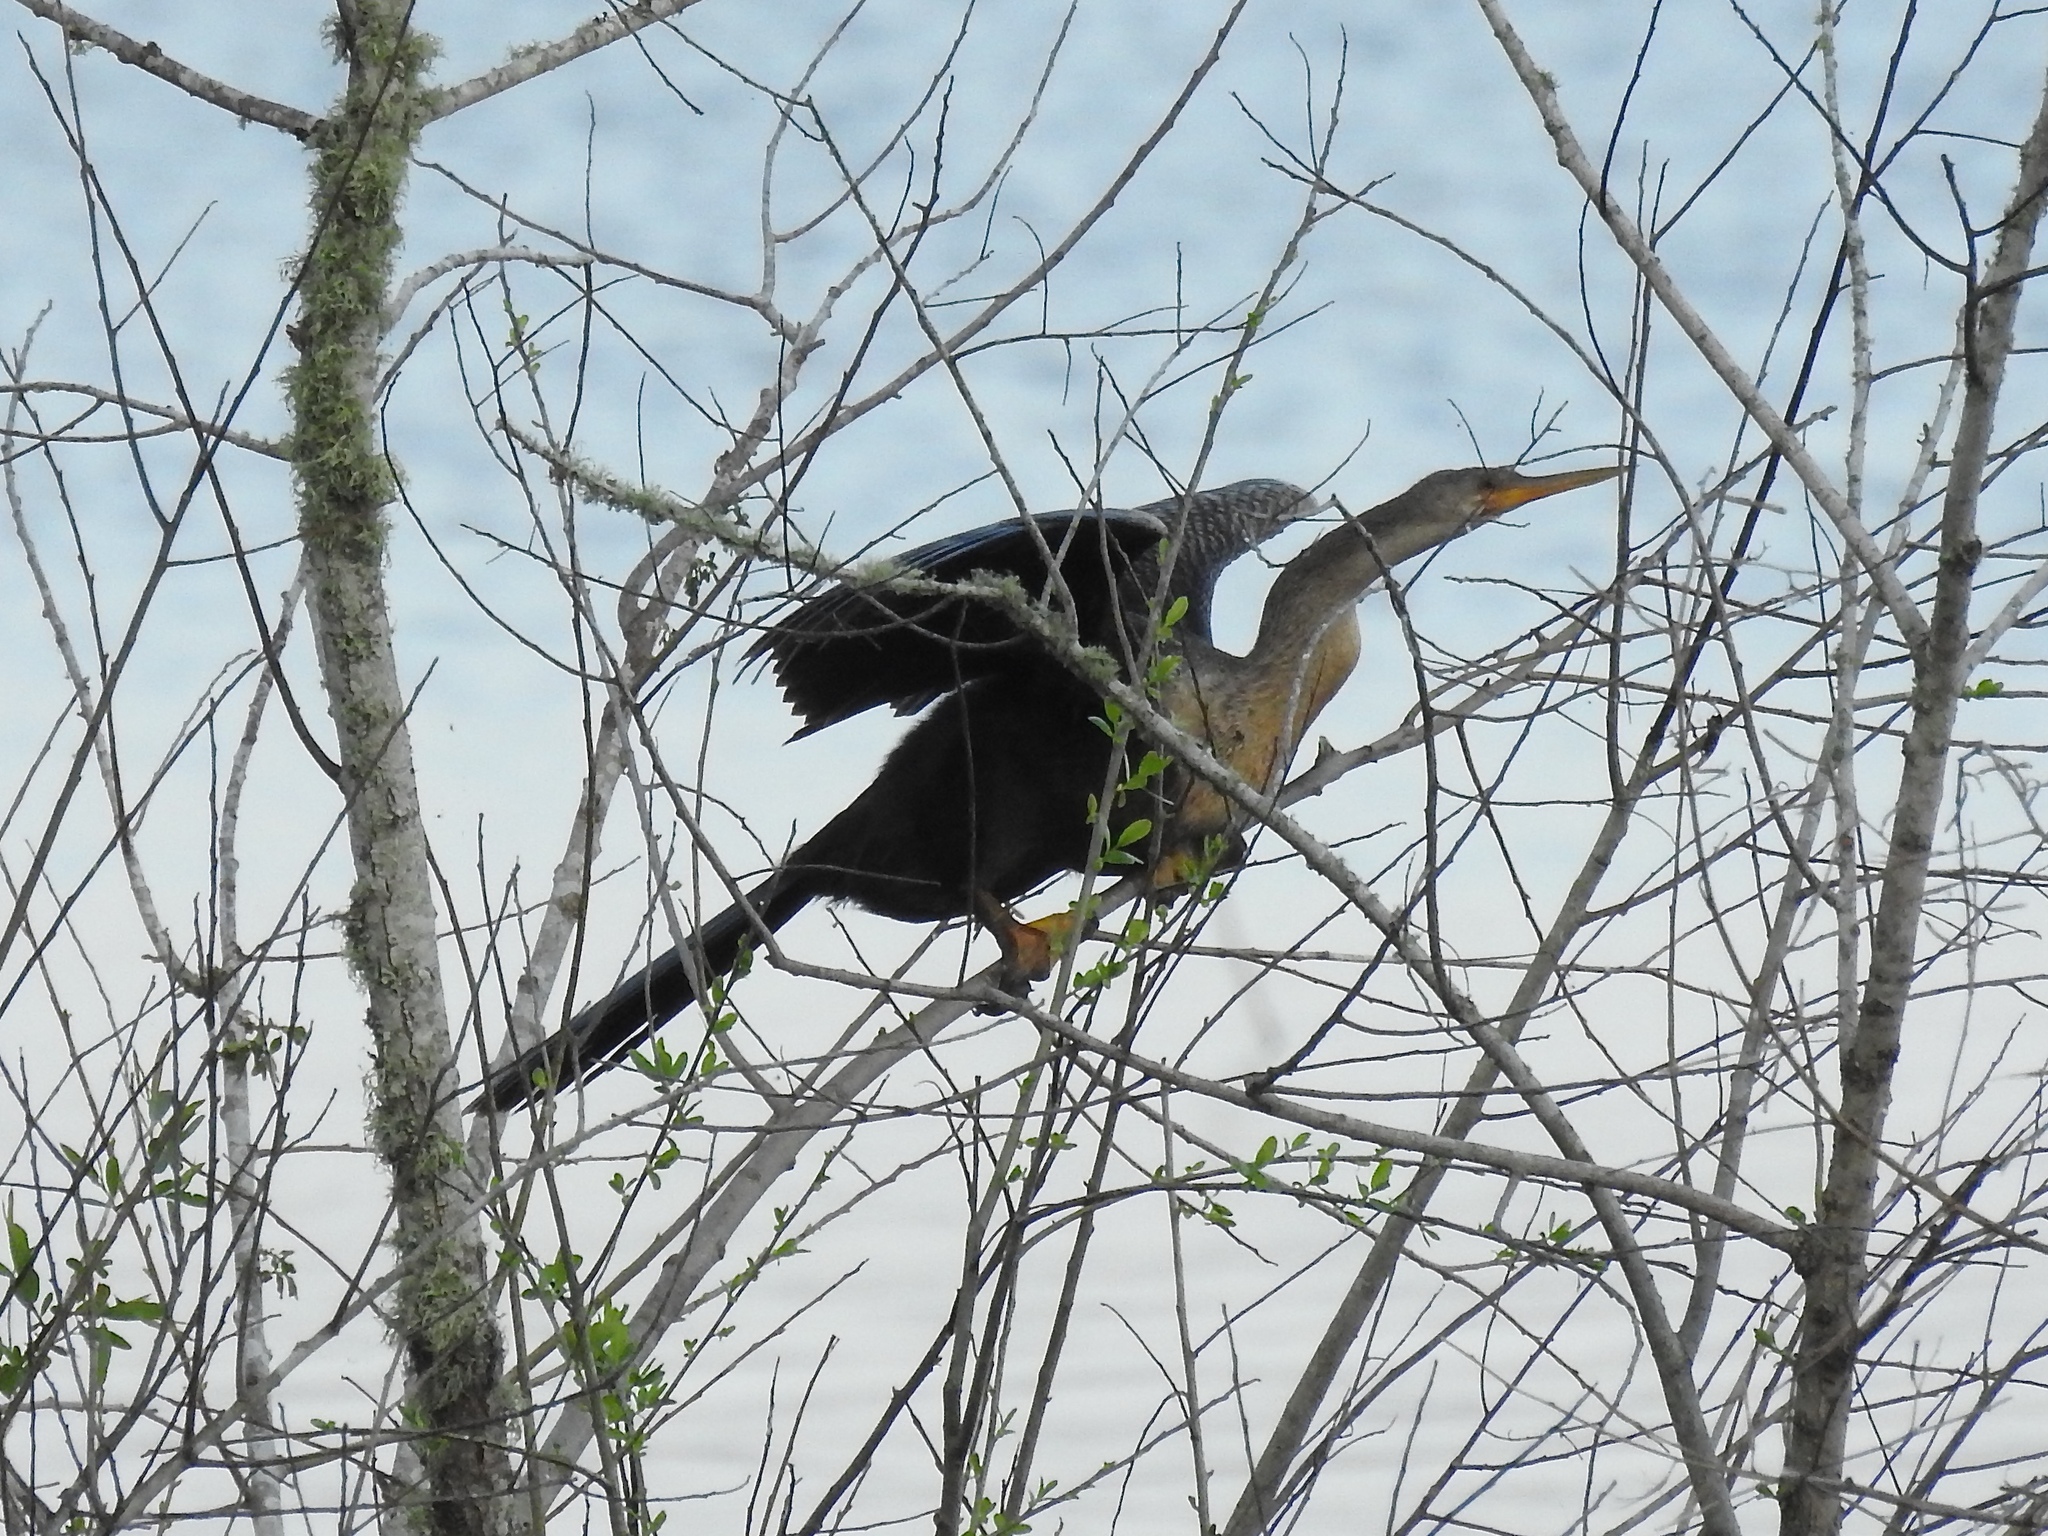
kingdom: Animalia
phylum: Chordata
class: Aves
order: Suliformes
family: Anhingidae
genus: Anhinga
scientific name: Anhinga anhinga
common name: Anhinga
